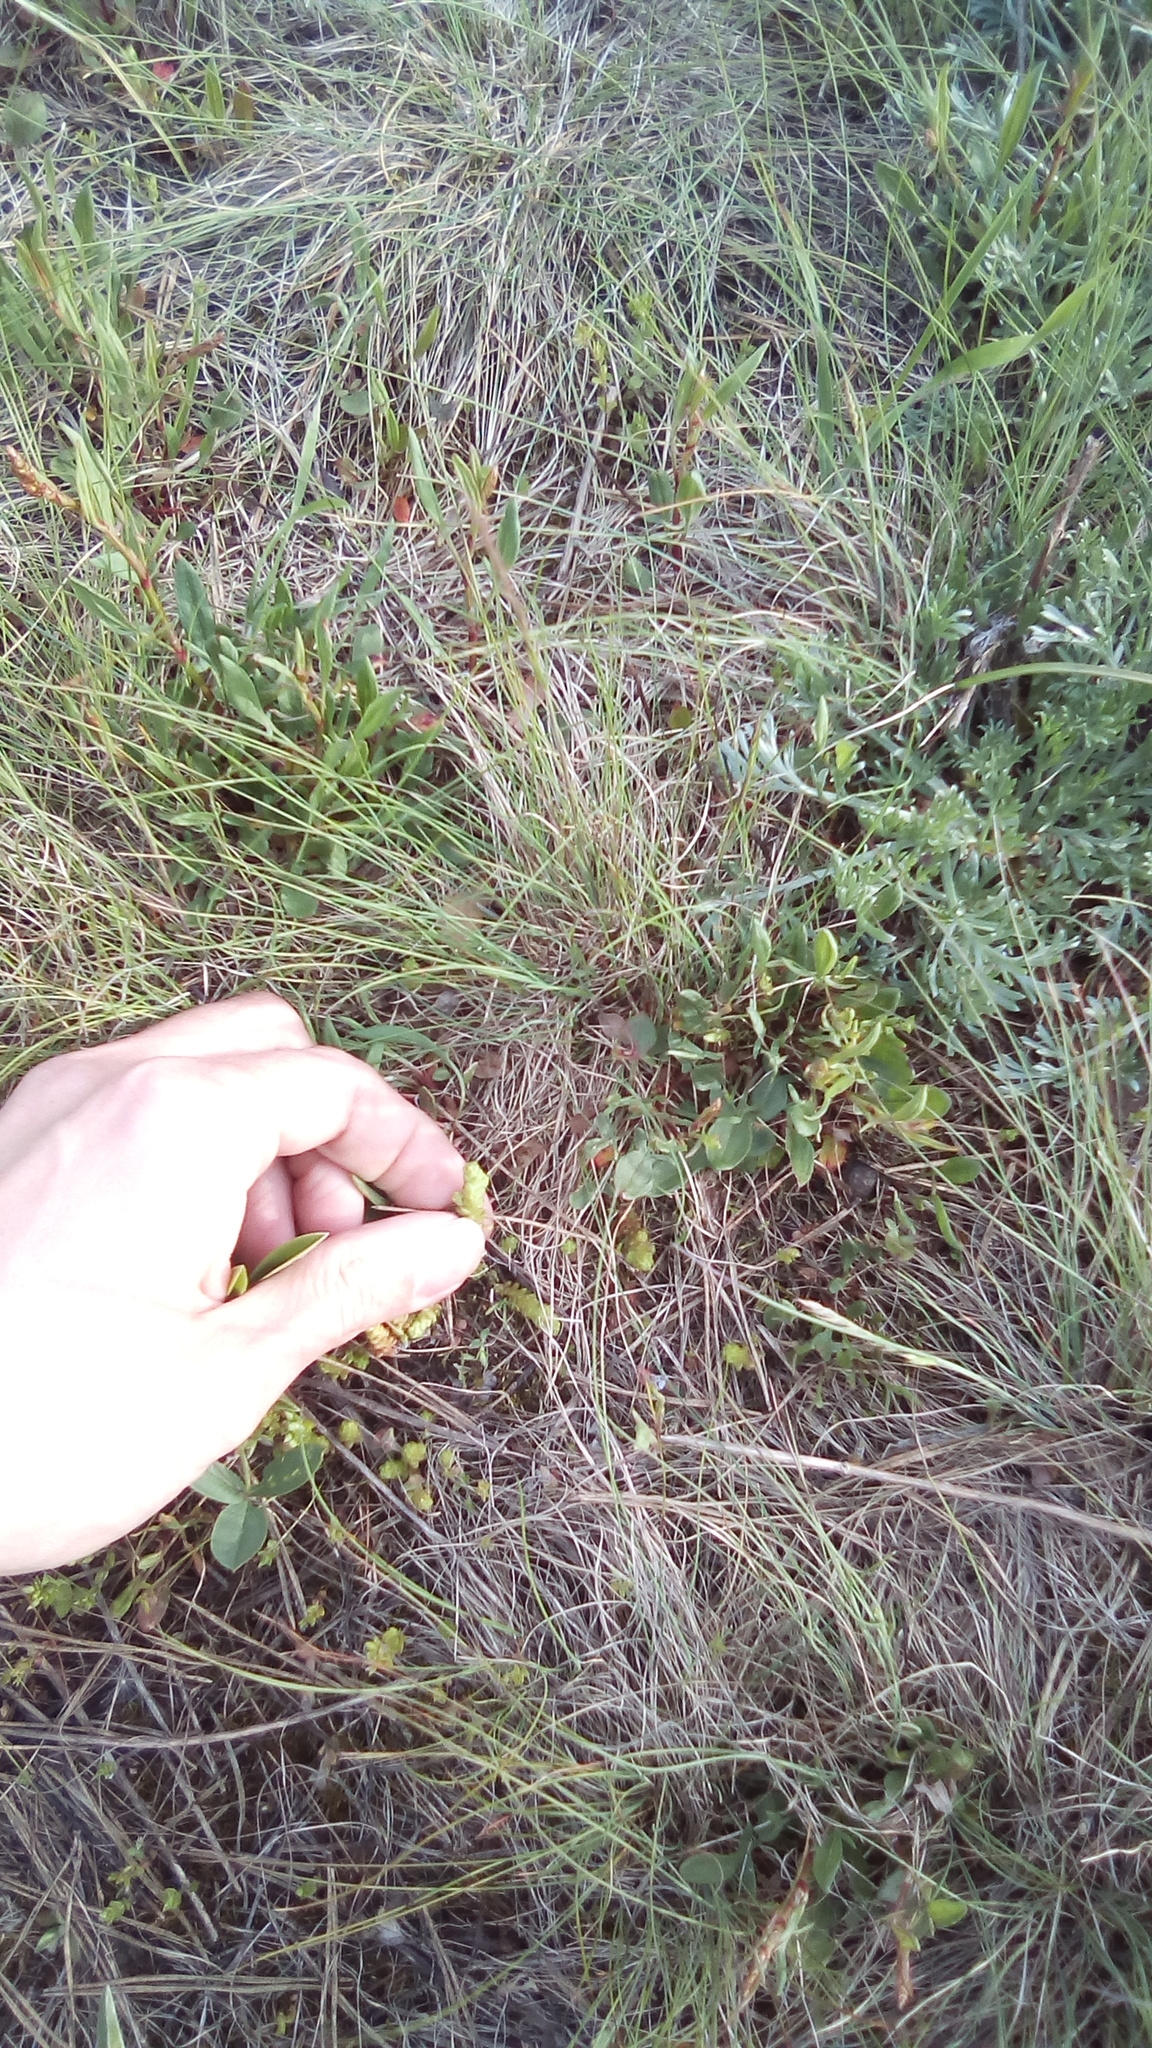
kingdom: Plantae
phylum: Tracheophyta
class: Magnoliopsida
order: Saxifragales
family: Crassulaceae
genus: Sedum
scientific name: Sedum acre
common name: Biting stonecrop
